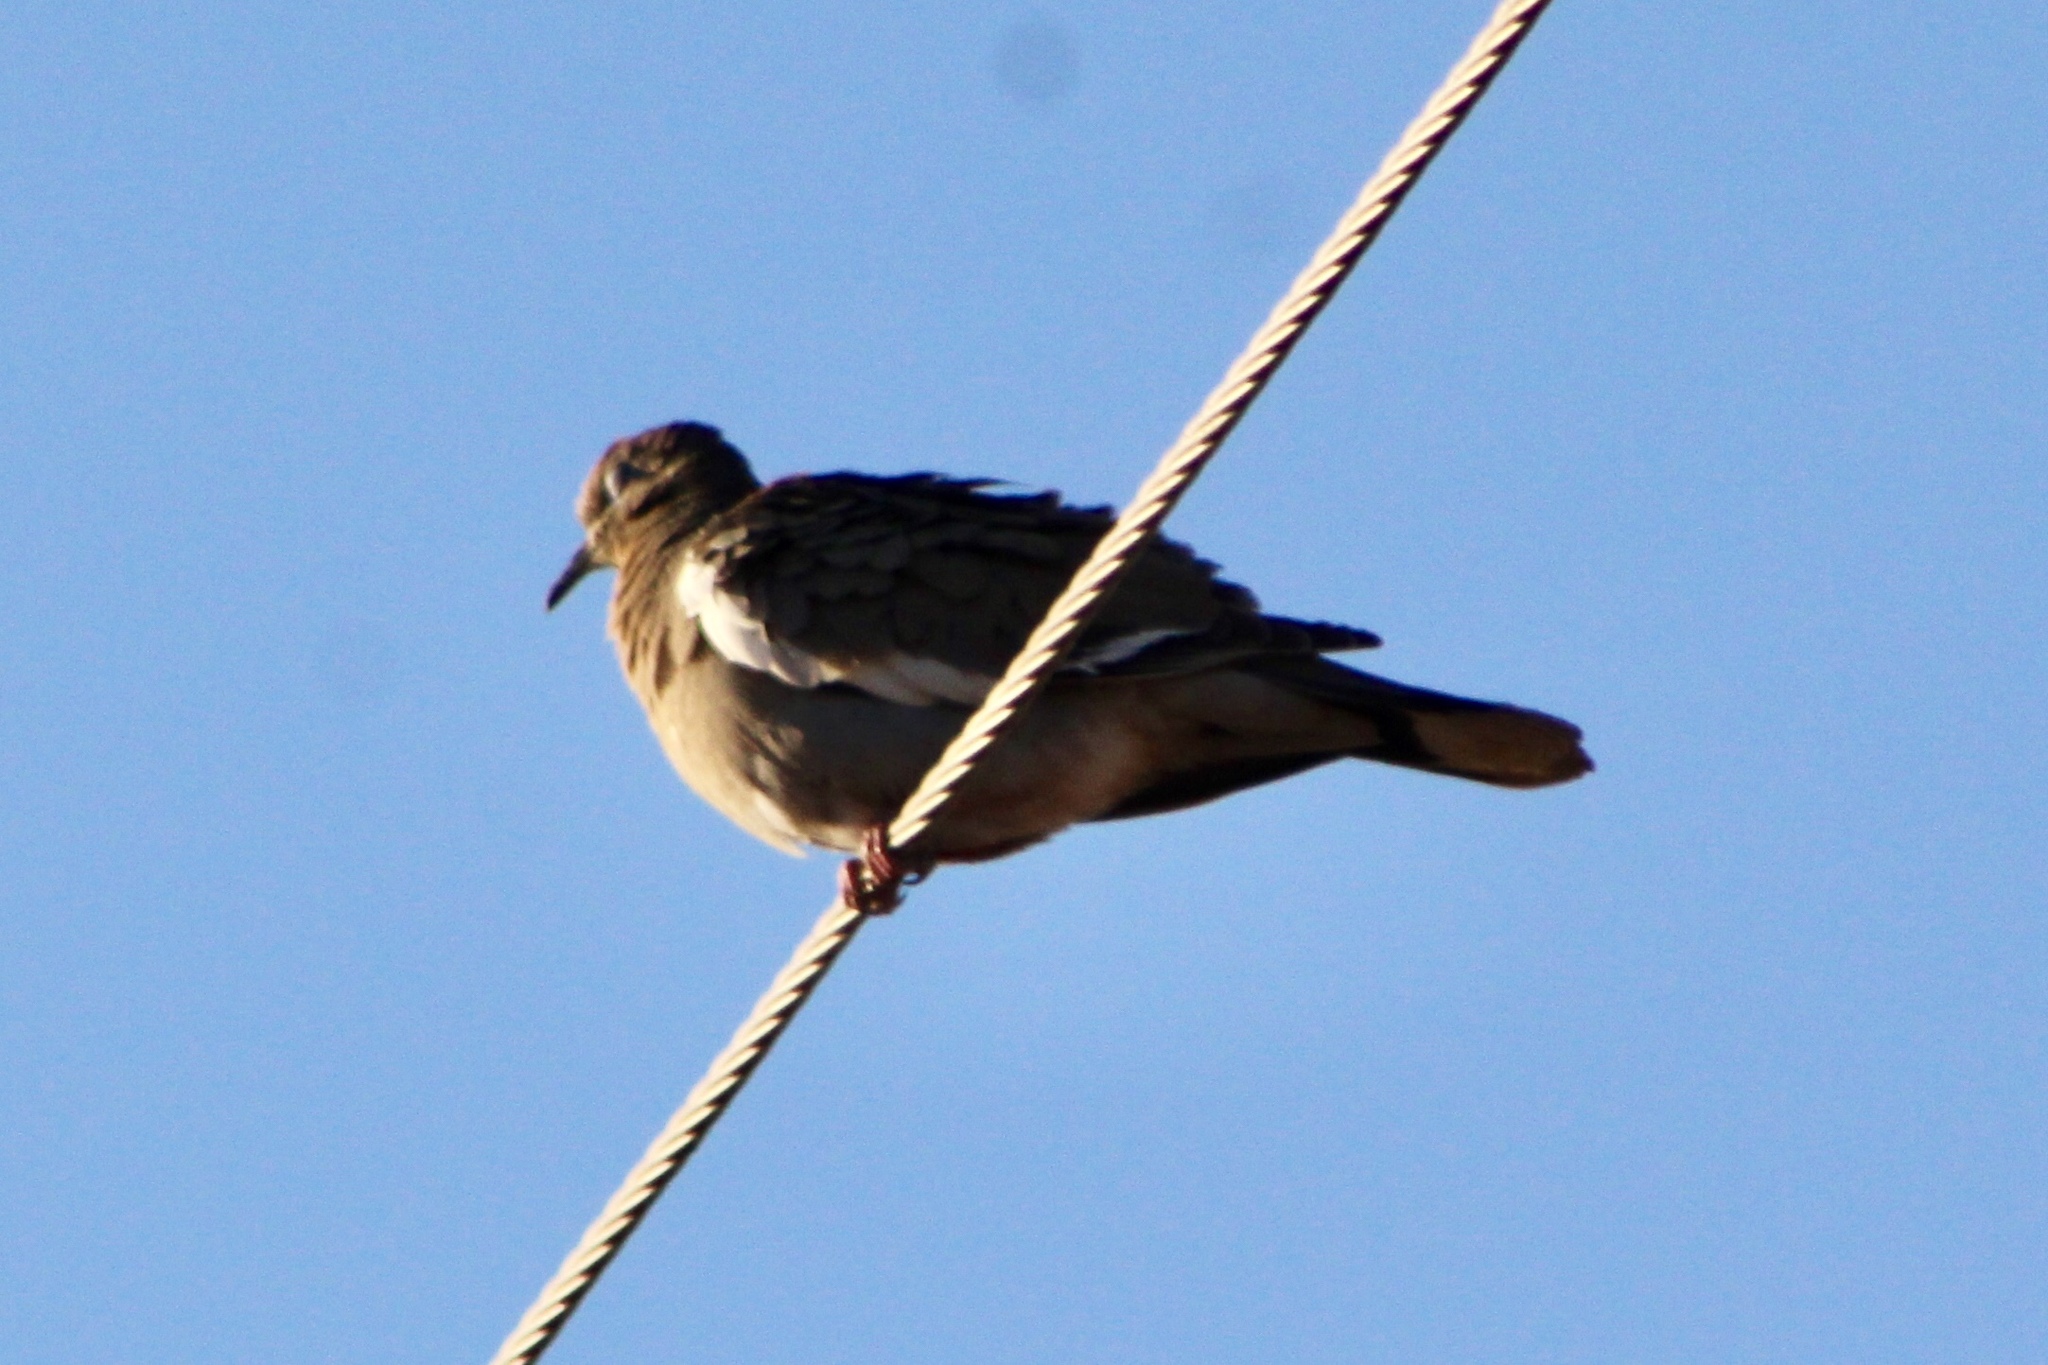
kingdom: Animalia
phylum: Chordata
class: Aves
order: Columbiformes
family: Columbidae
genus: Zenaida
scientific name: Zenaida asiatica
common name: White-winged dove
